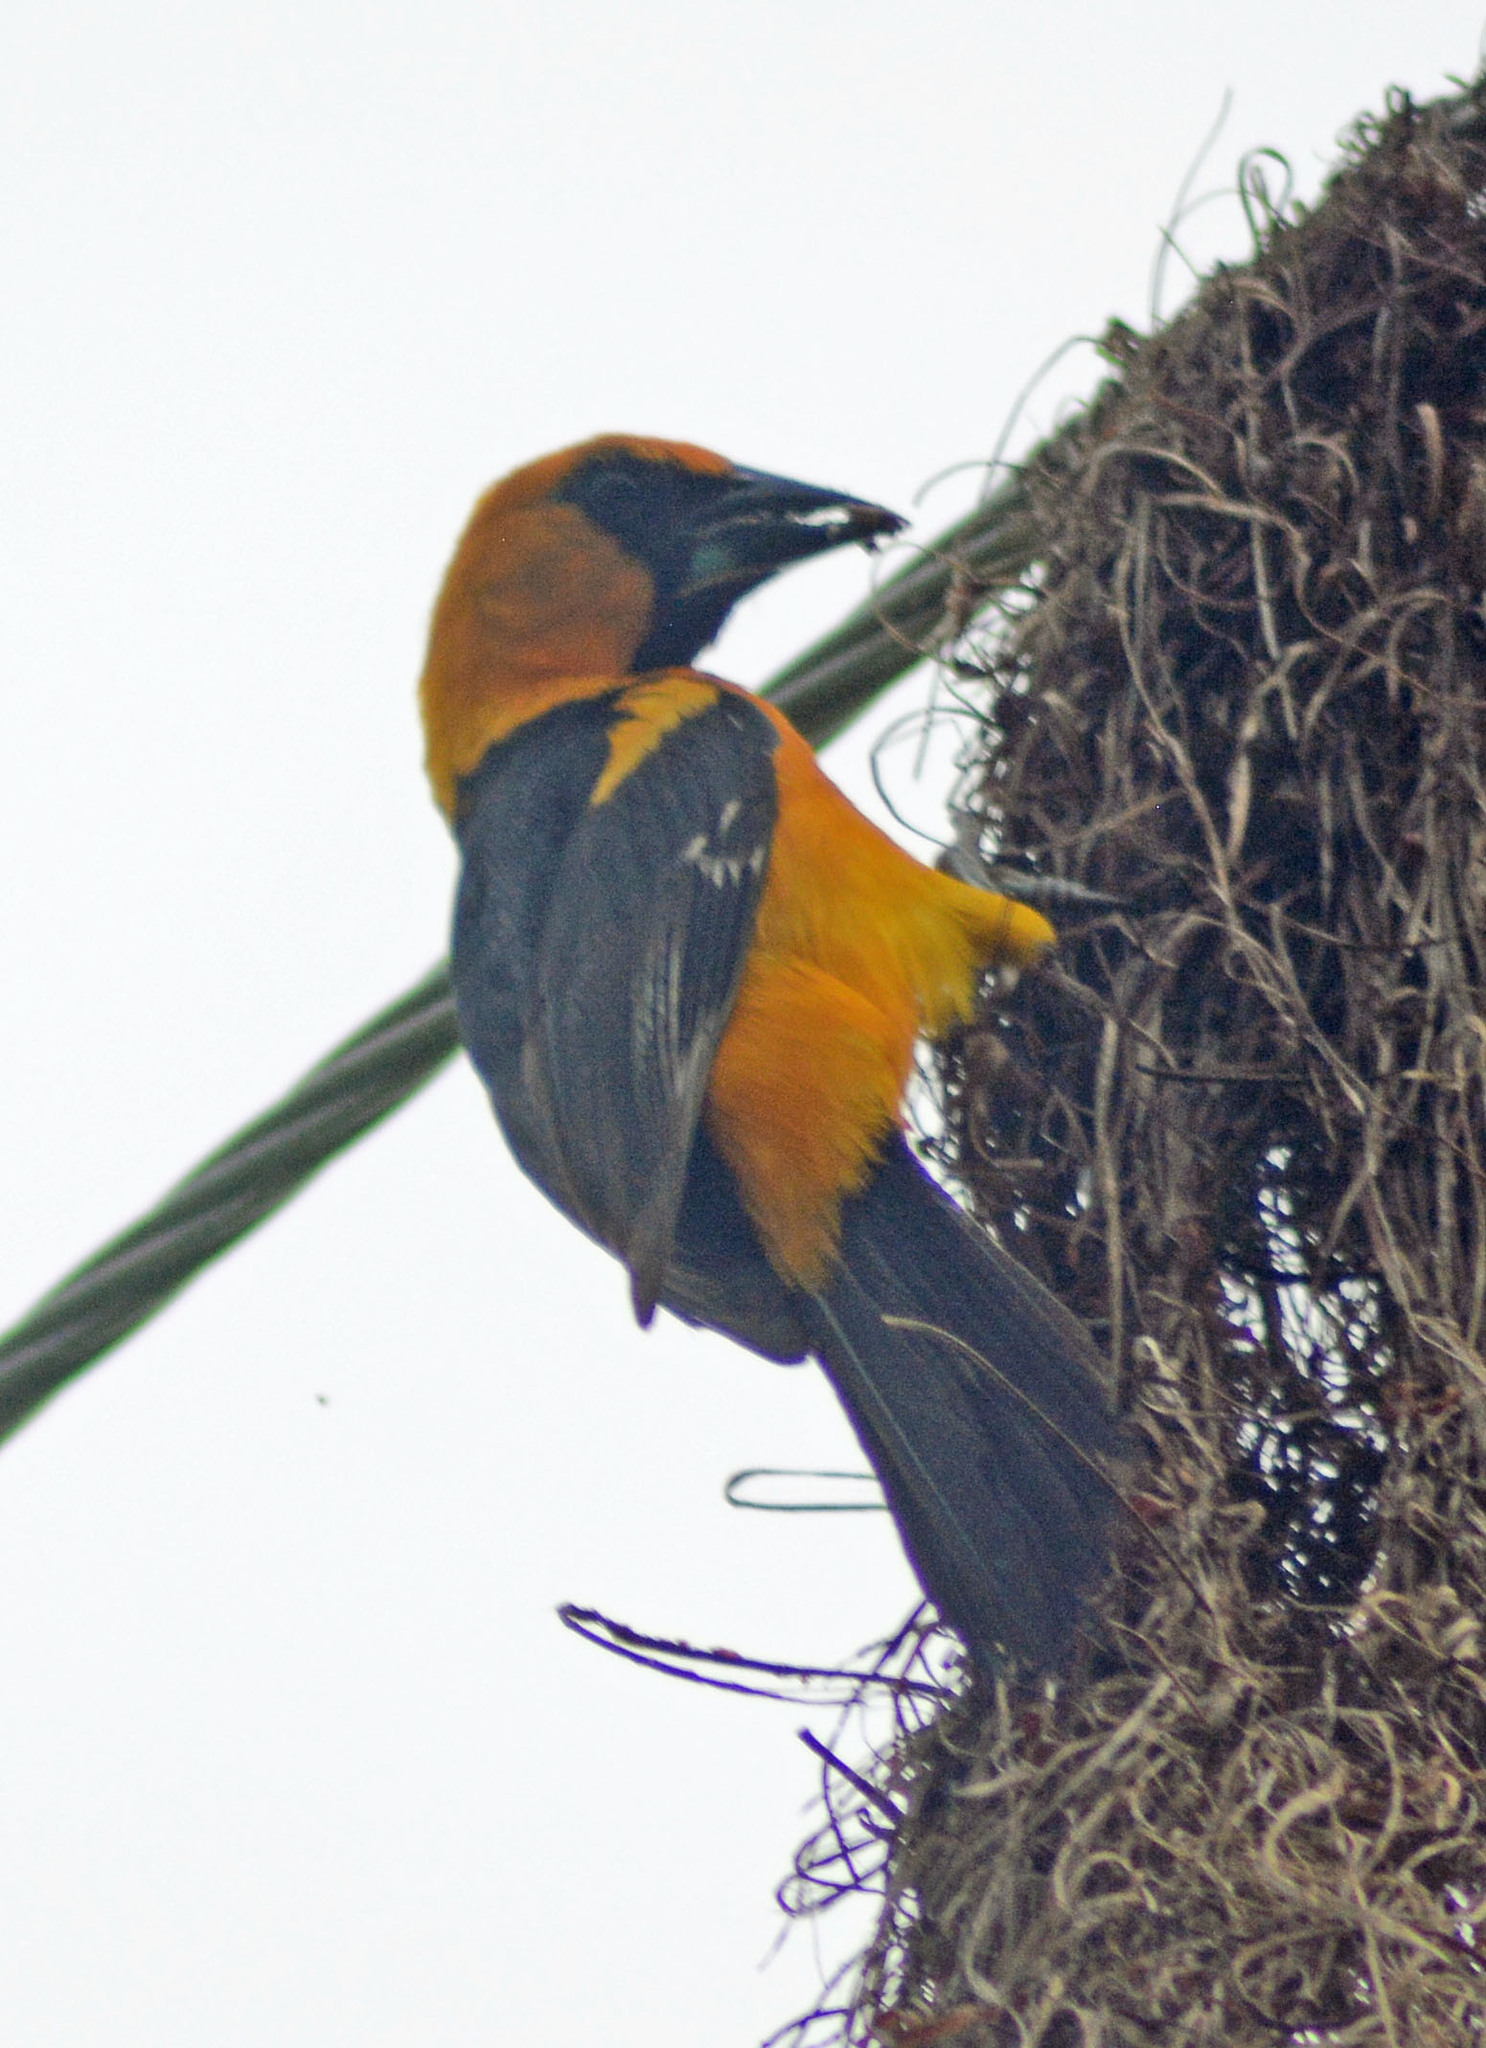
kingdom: Animalia
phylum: Chordata
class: Aves
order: Passeriformes
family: Icteridae
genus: Icterus
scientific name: Icterus gularis
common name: Altamira oriole
